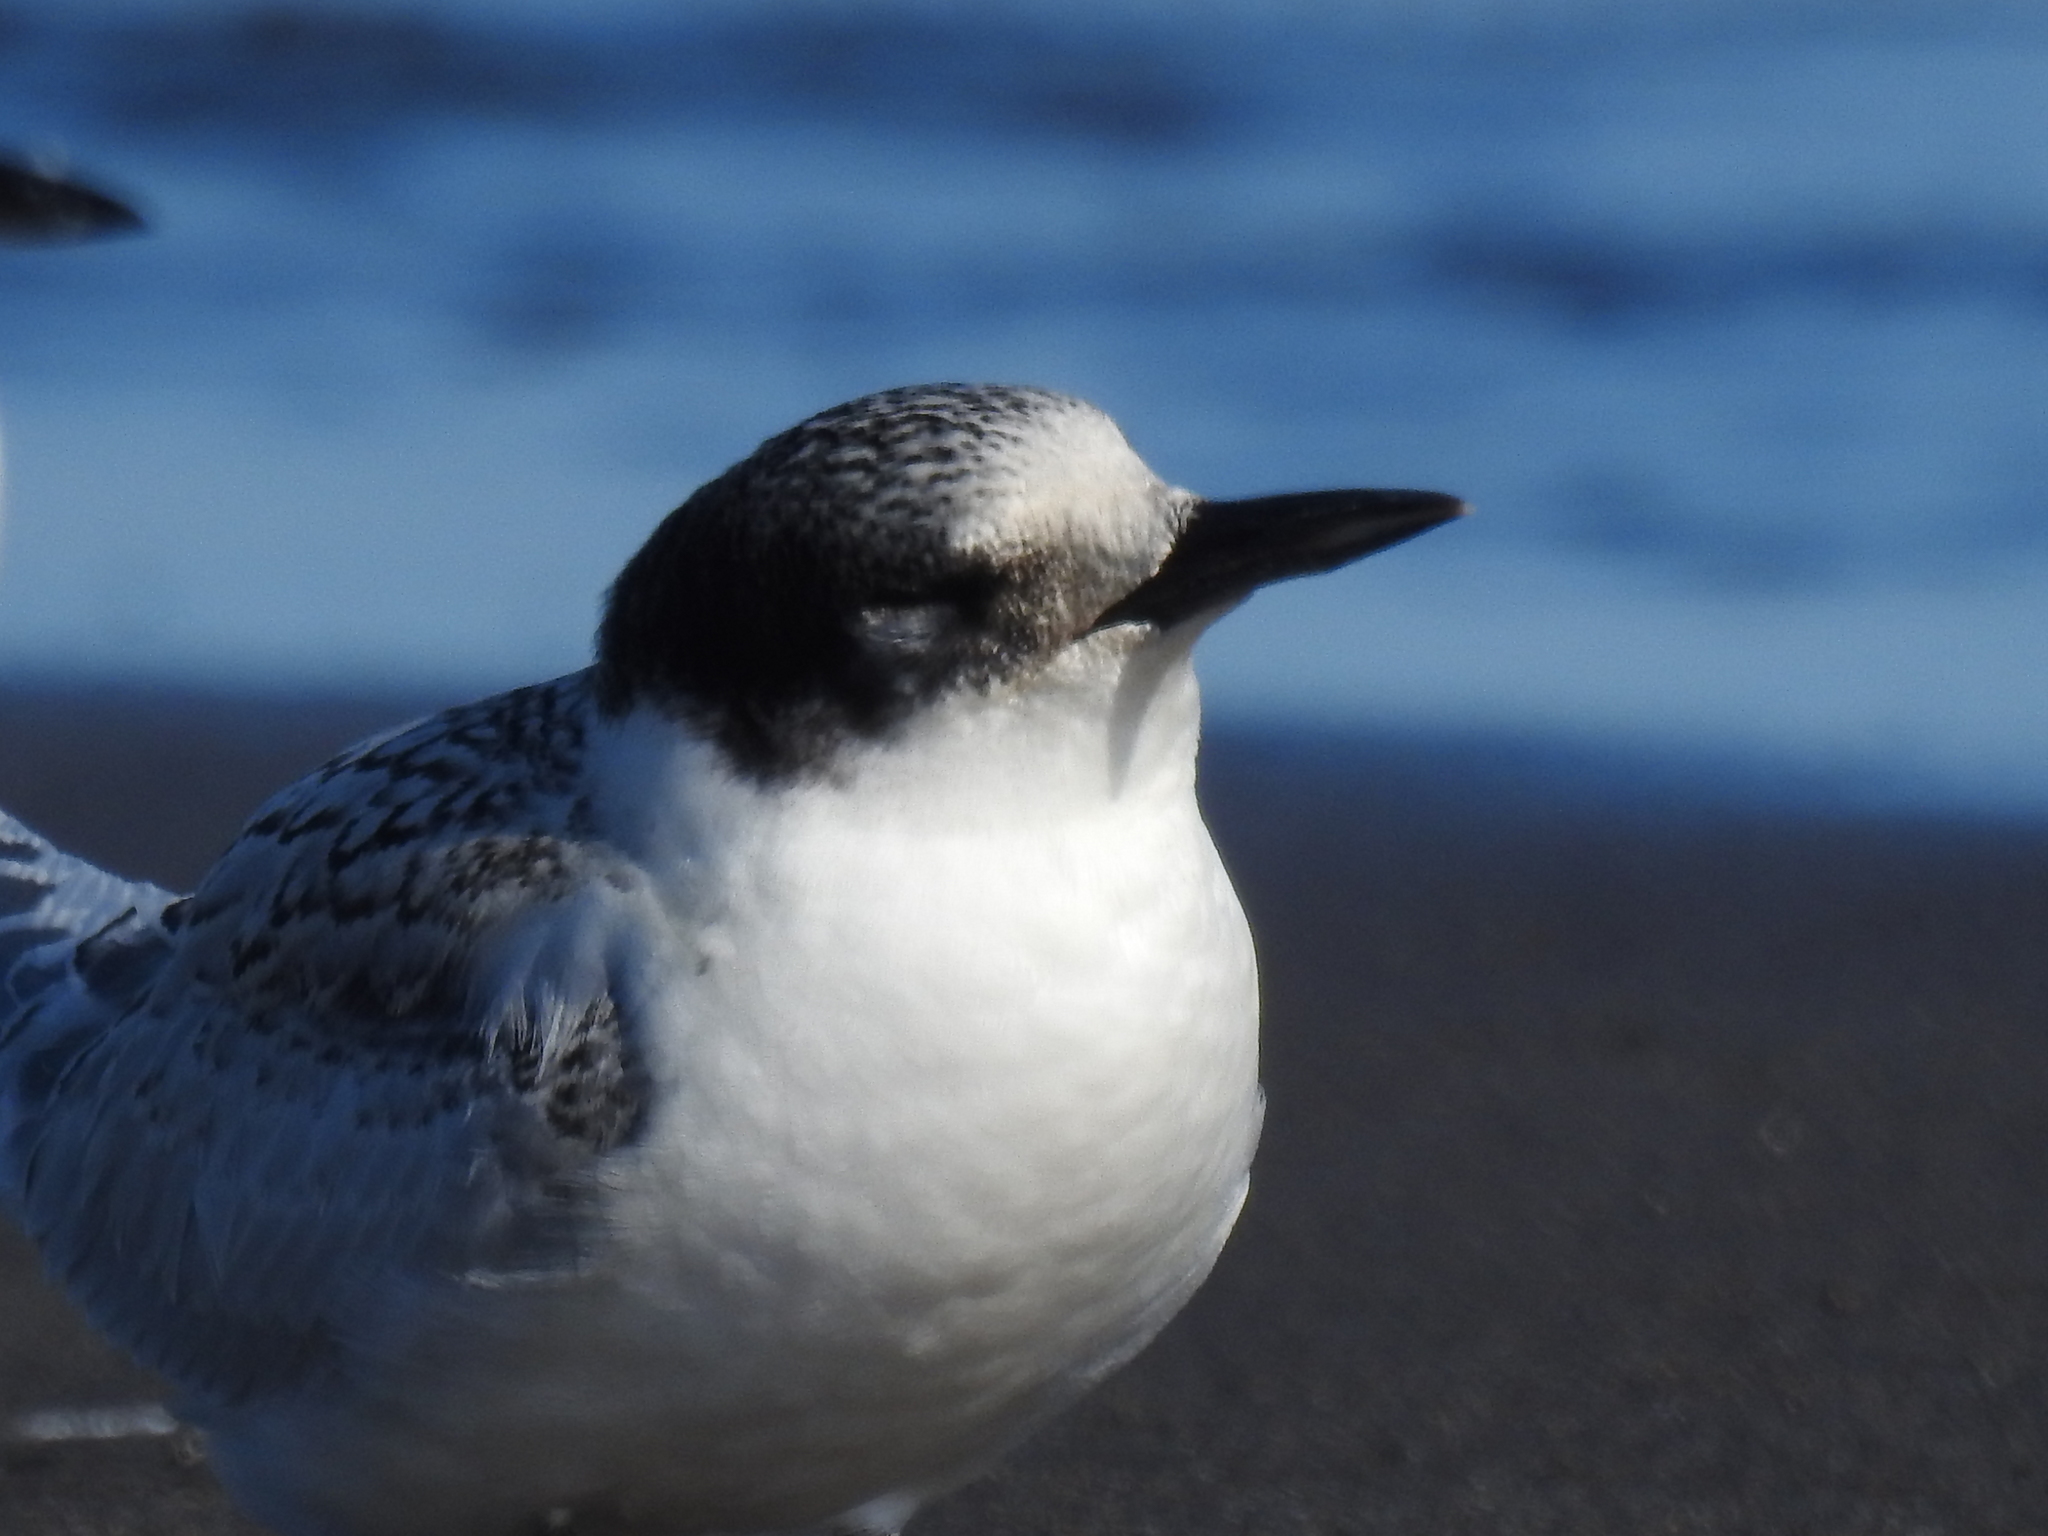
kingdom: Animalia
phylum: Chordata
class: Aves
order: Charadriiformes
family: Laridae
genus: Sterna
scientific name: Sterna striata
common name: White-fronted tern
